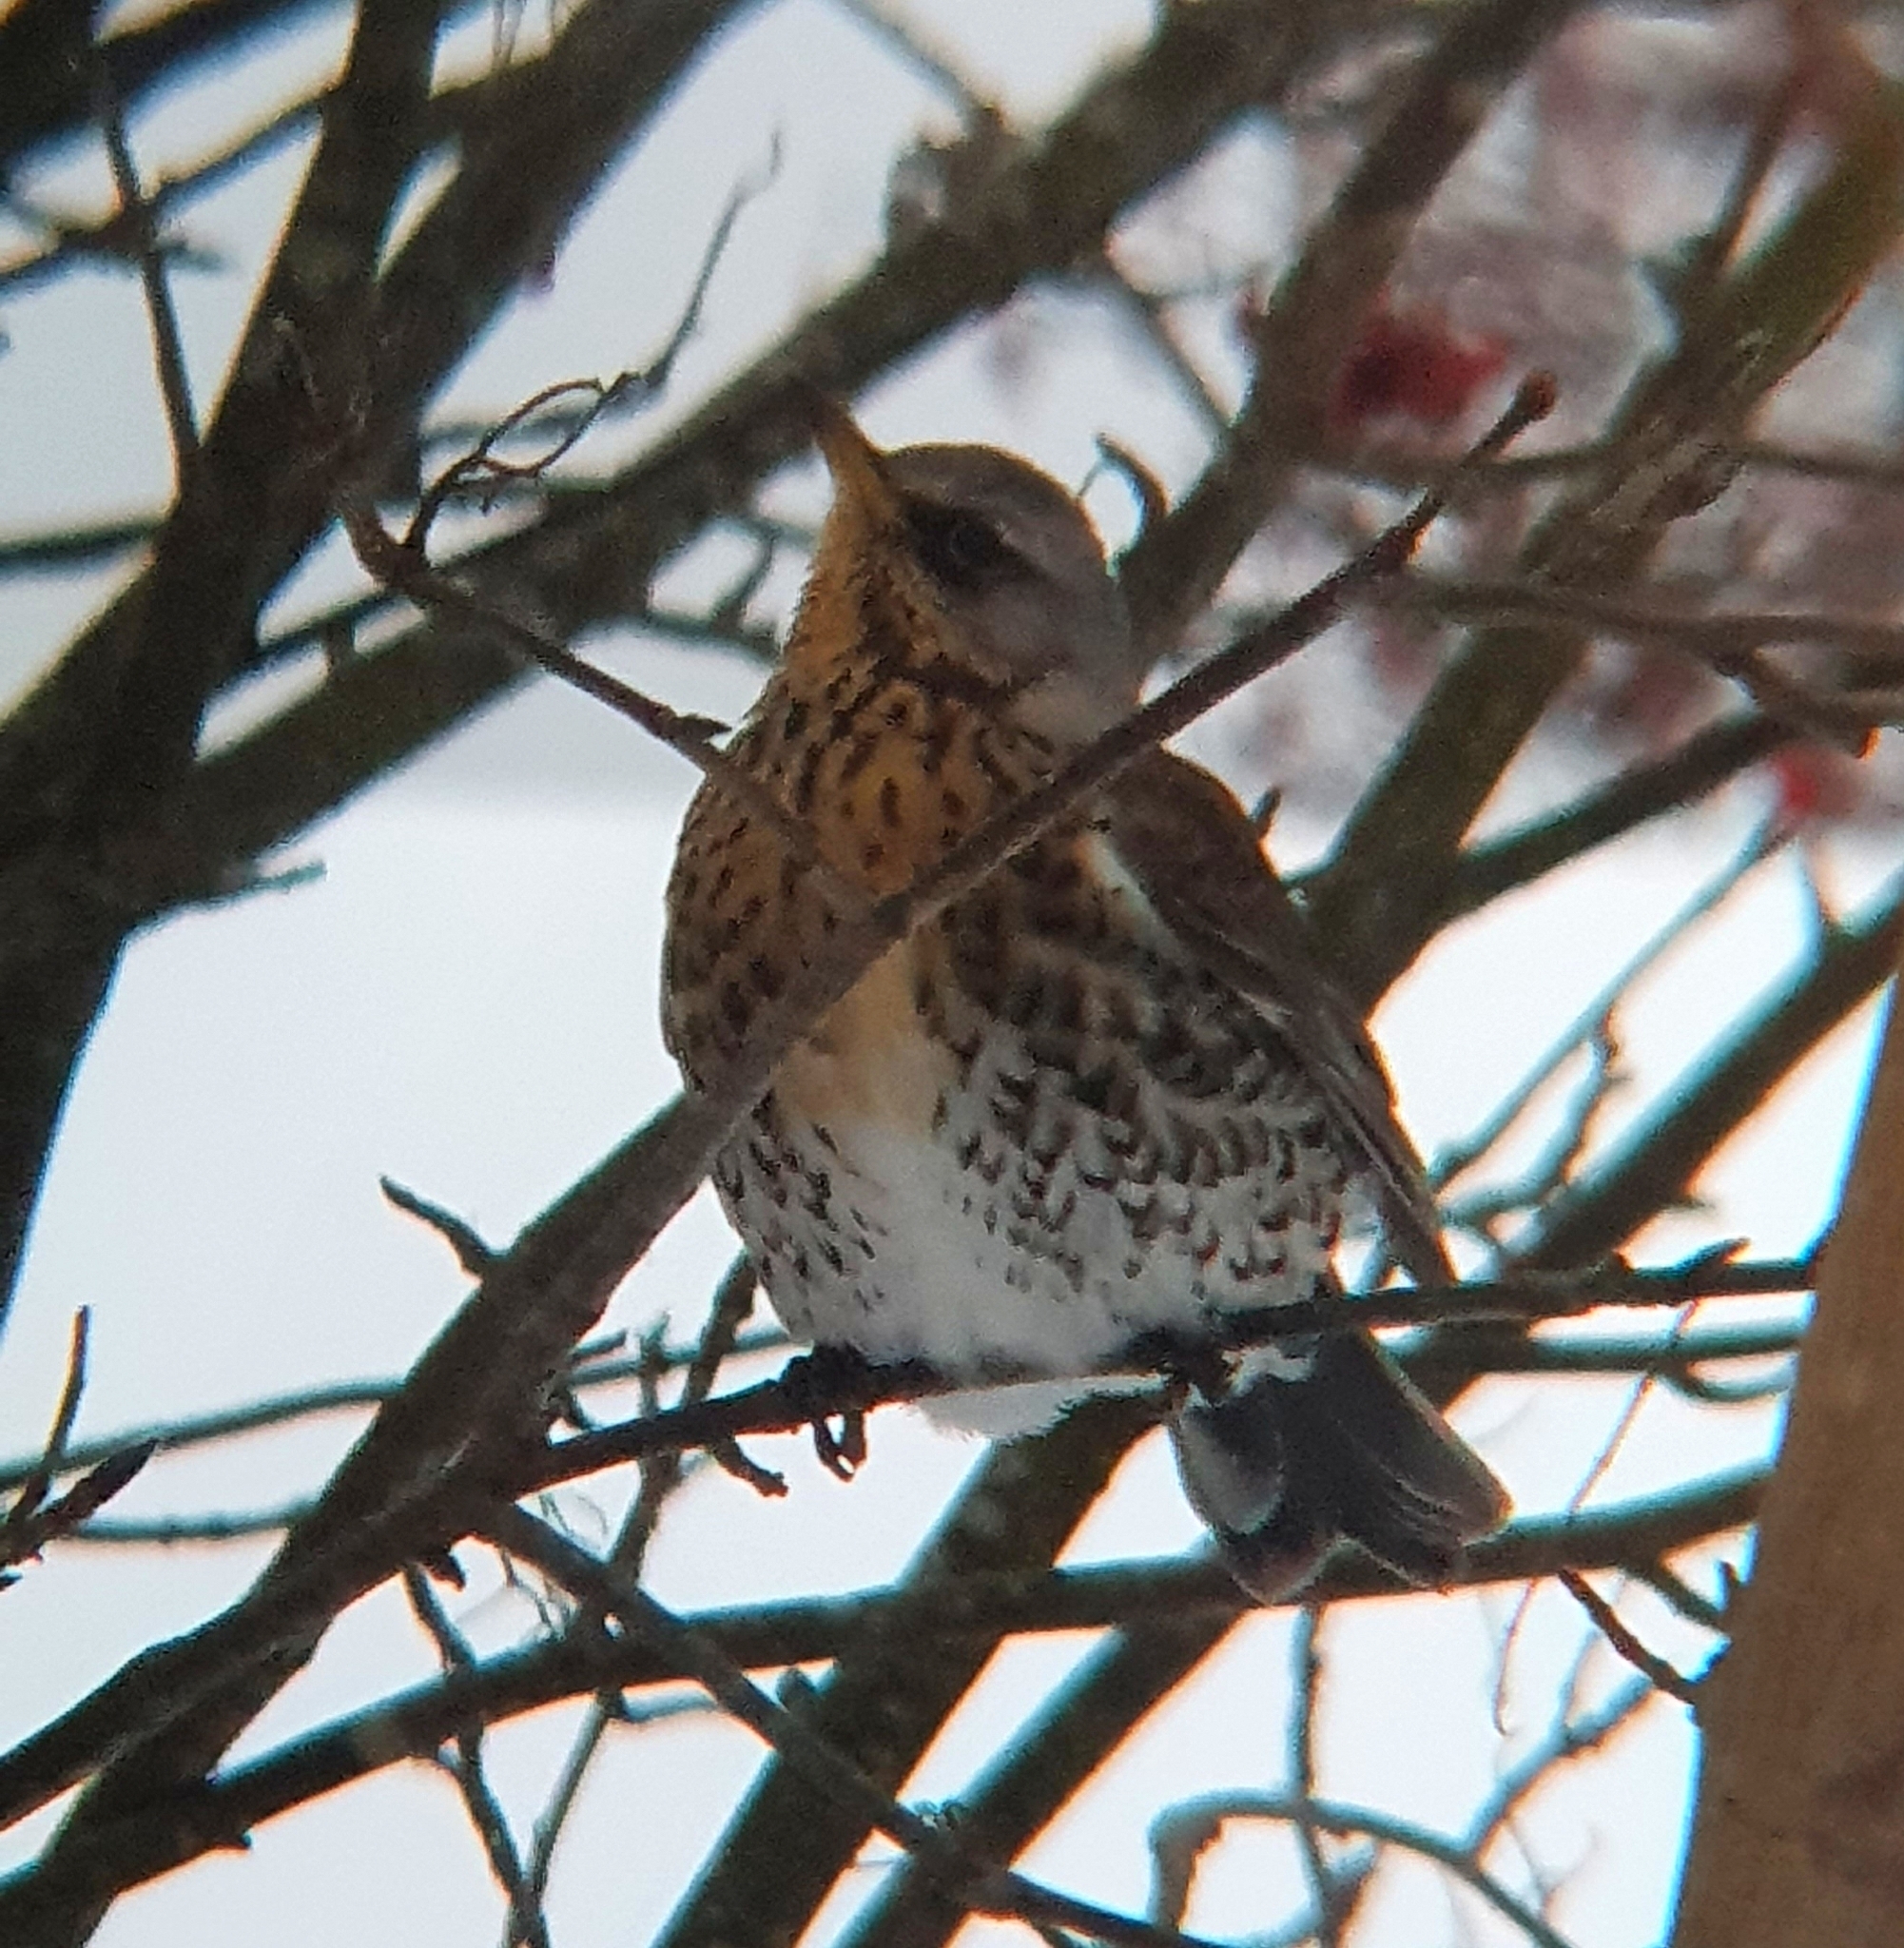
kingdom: Animalia
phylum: Chordata
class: Aves
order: Passeriformes
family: Turdidae
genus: Turdus
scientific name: Turdus pilaris
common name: Fieldfare
